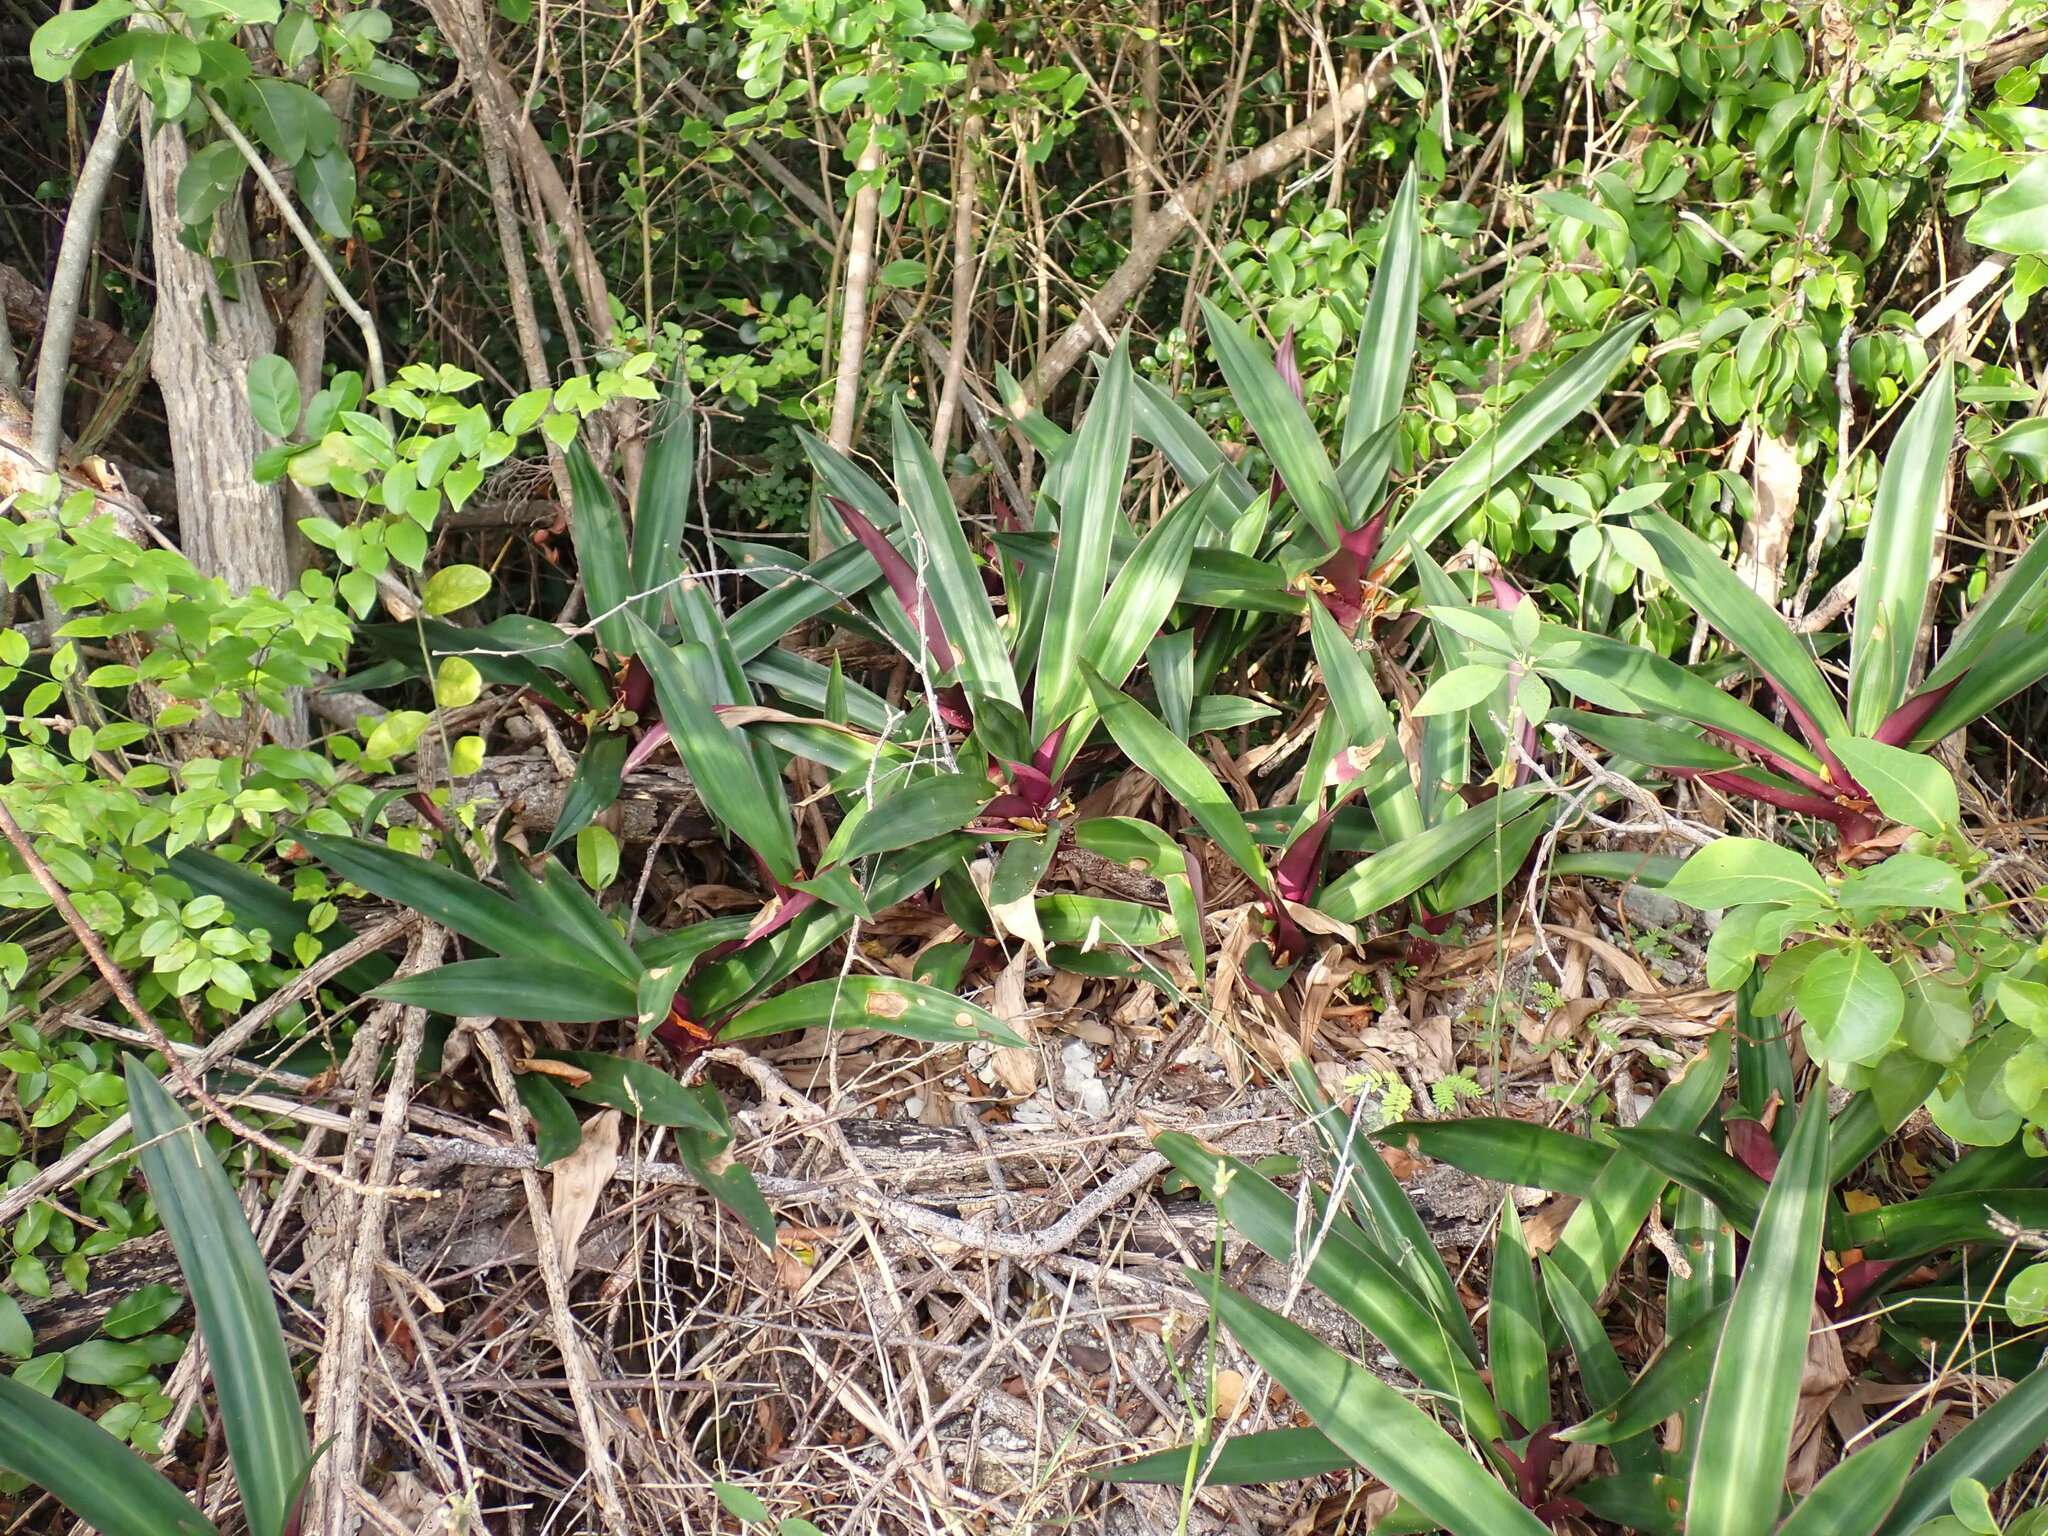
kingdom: Plantae
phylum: Tracheophyta
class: Liliopsida
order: Commelinales
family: Commelinaceae
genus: Tradescantia
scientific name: Tradescantia spathacea
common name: Boatlily
